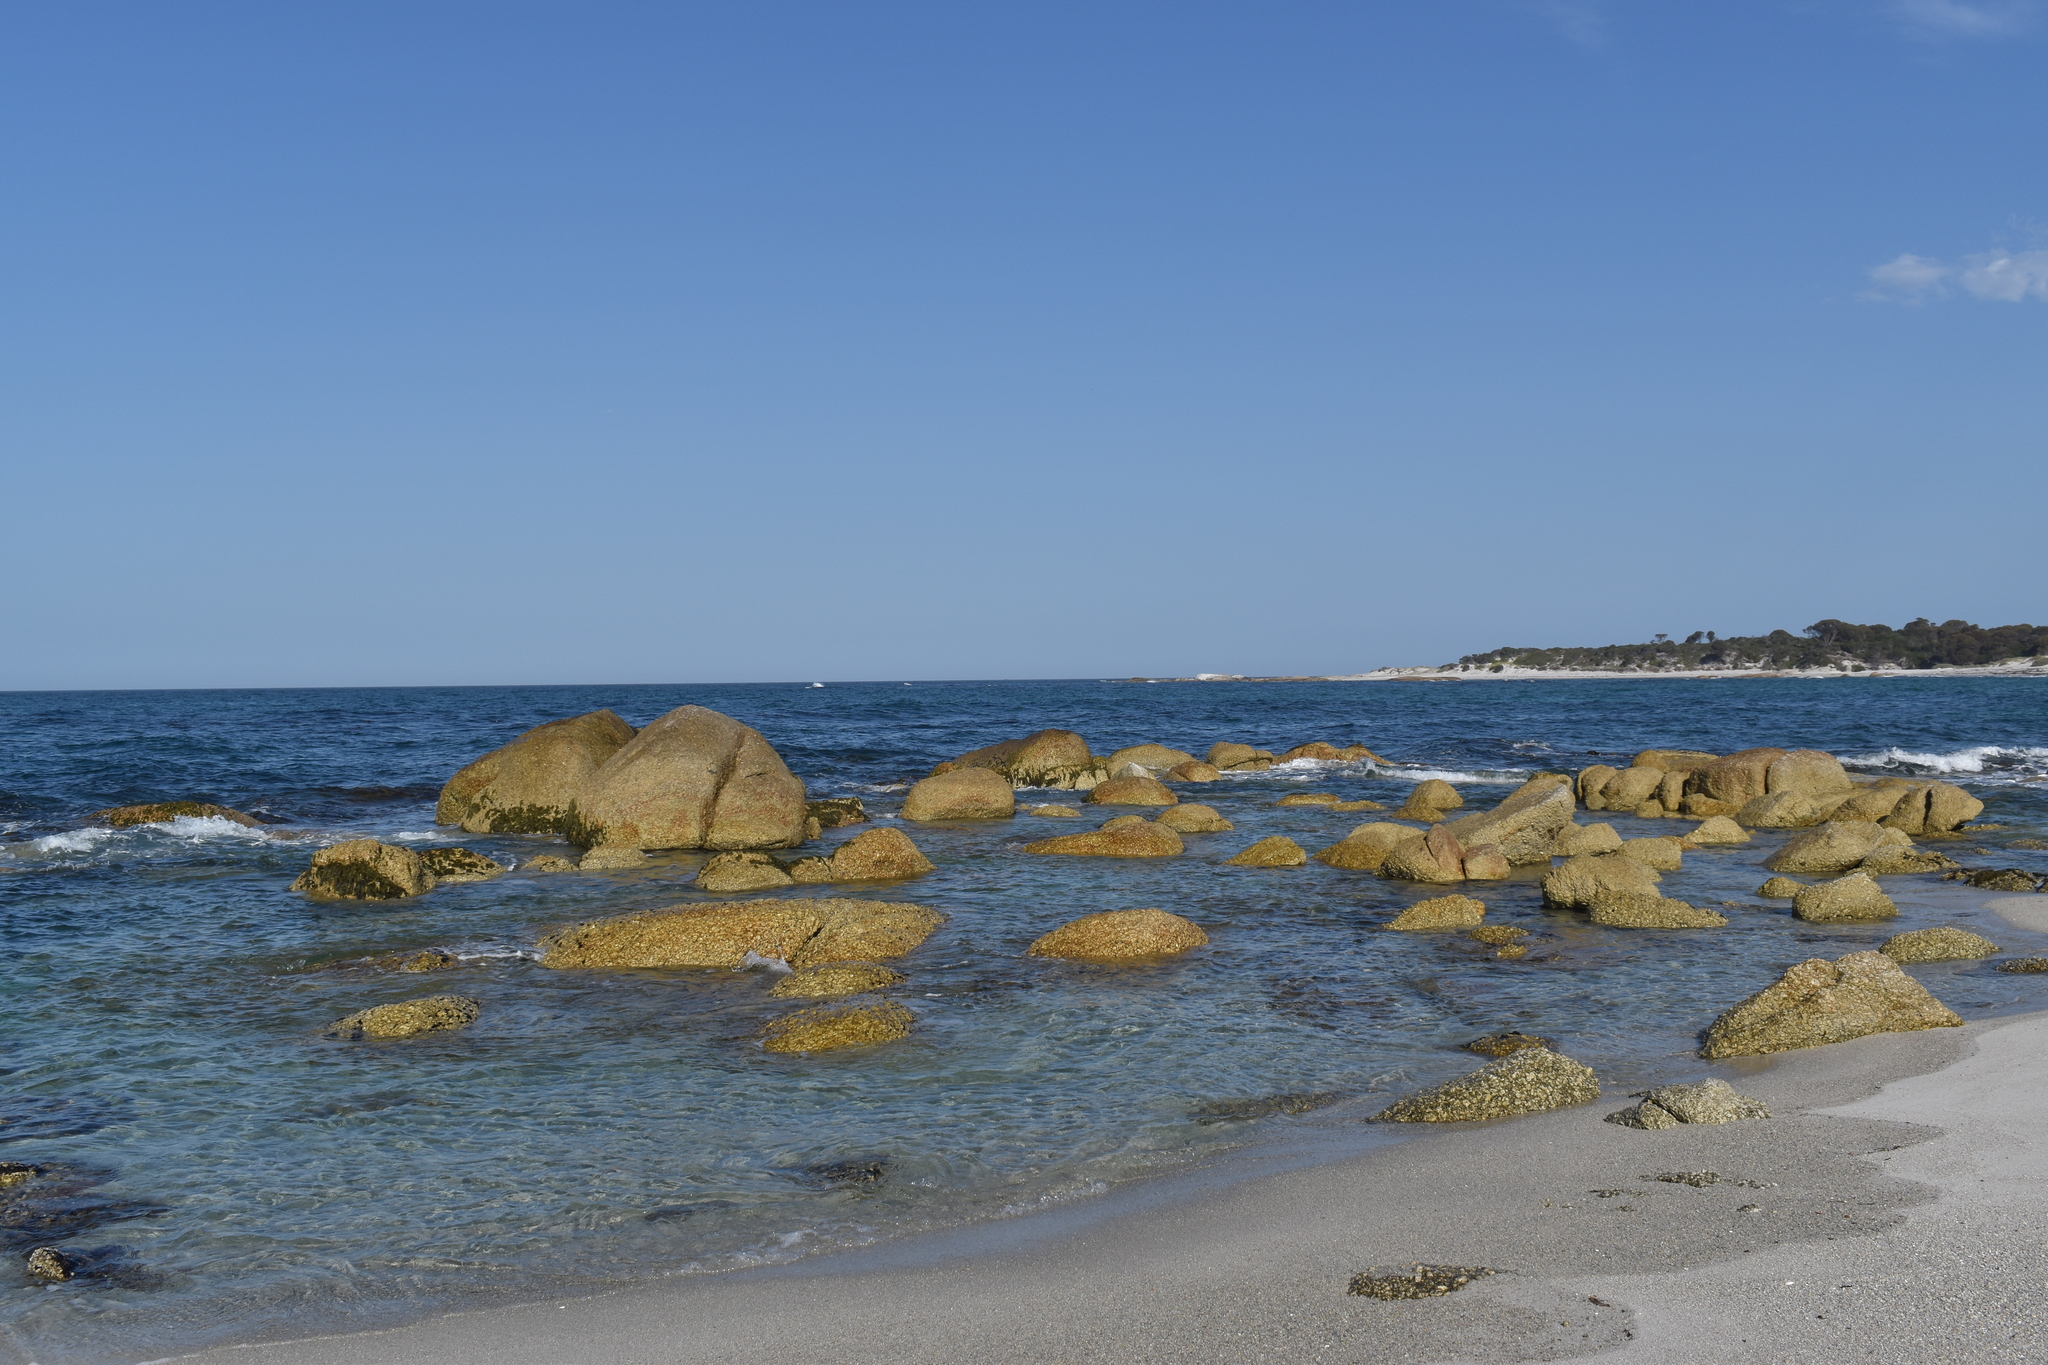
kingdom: Animalia
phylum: Chordata
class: Elasmobranchii
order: Carcharhiniformes
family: Scyliorhinidae
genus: Cephaloscyllium
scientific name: Cephaloscyllium laticeps
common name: Australian swellshark
